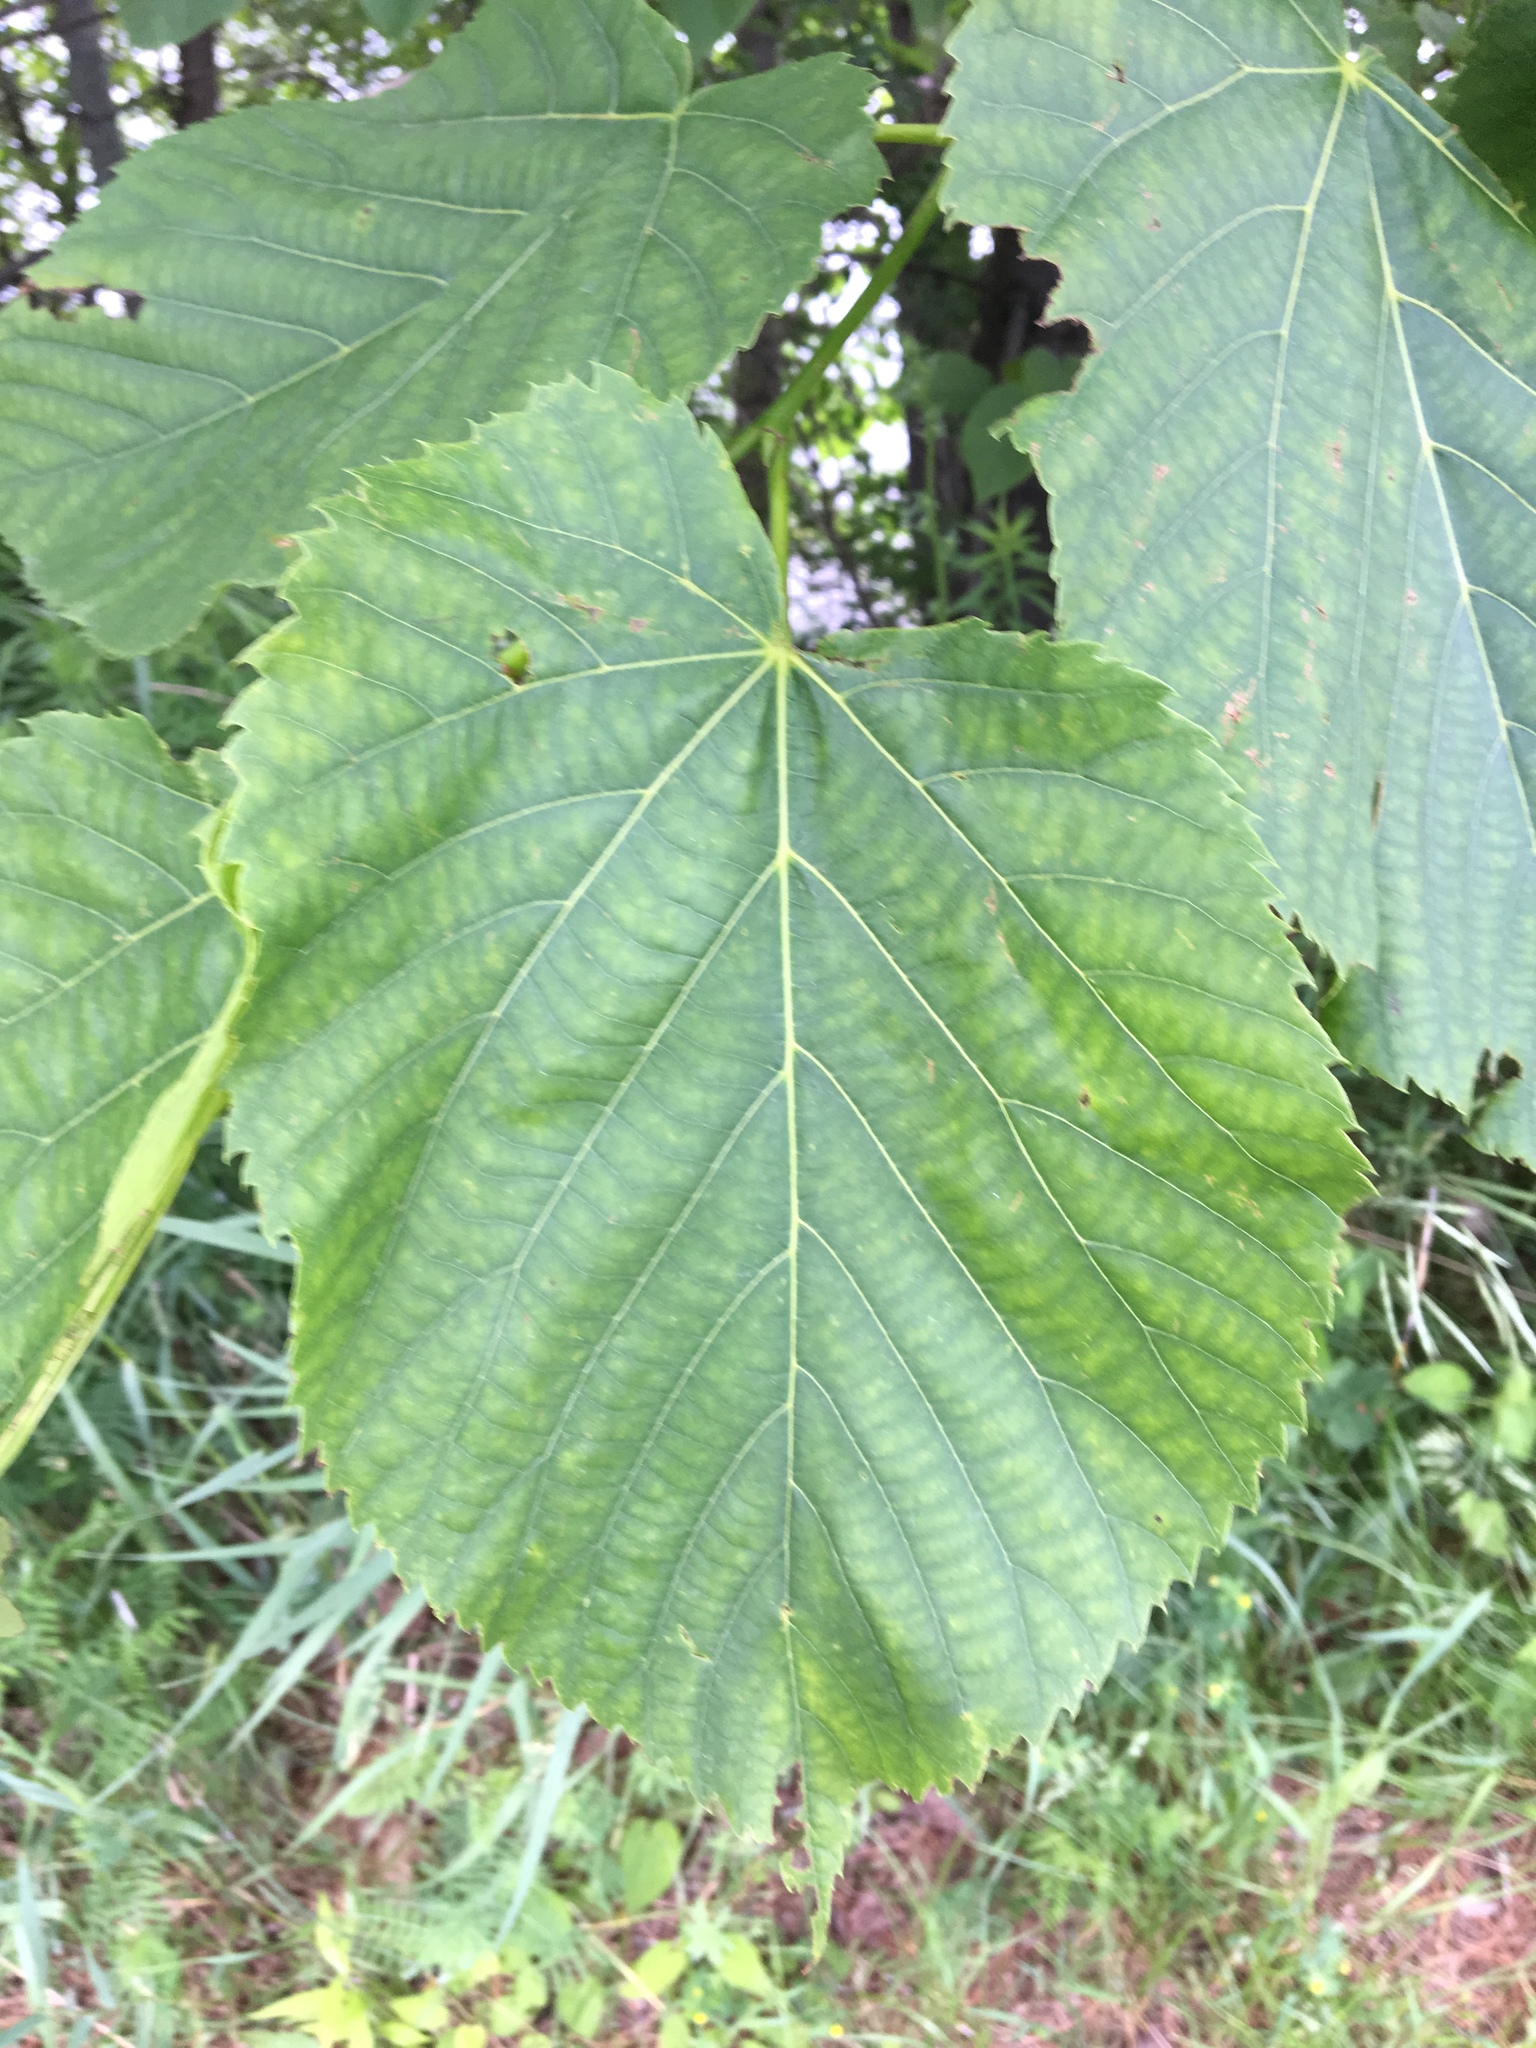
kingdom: Plantae
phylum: Tracheophyta
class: Magnoliopsida
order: Malvales
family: Malvaceae
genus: Tilia
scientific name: Tilia americana
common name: Basswood
